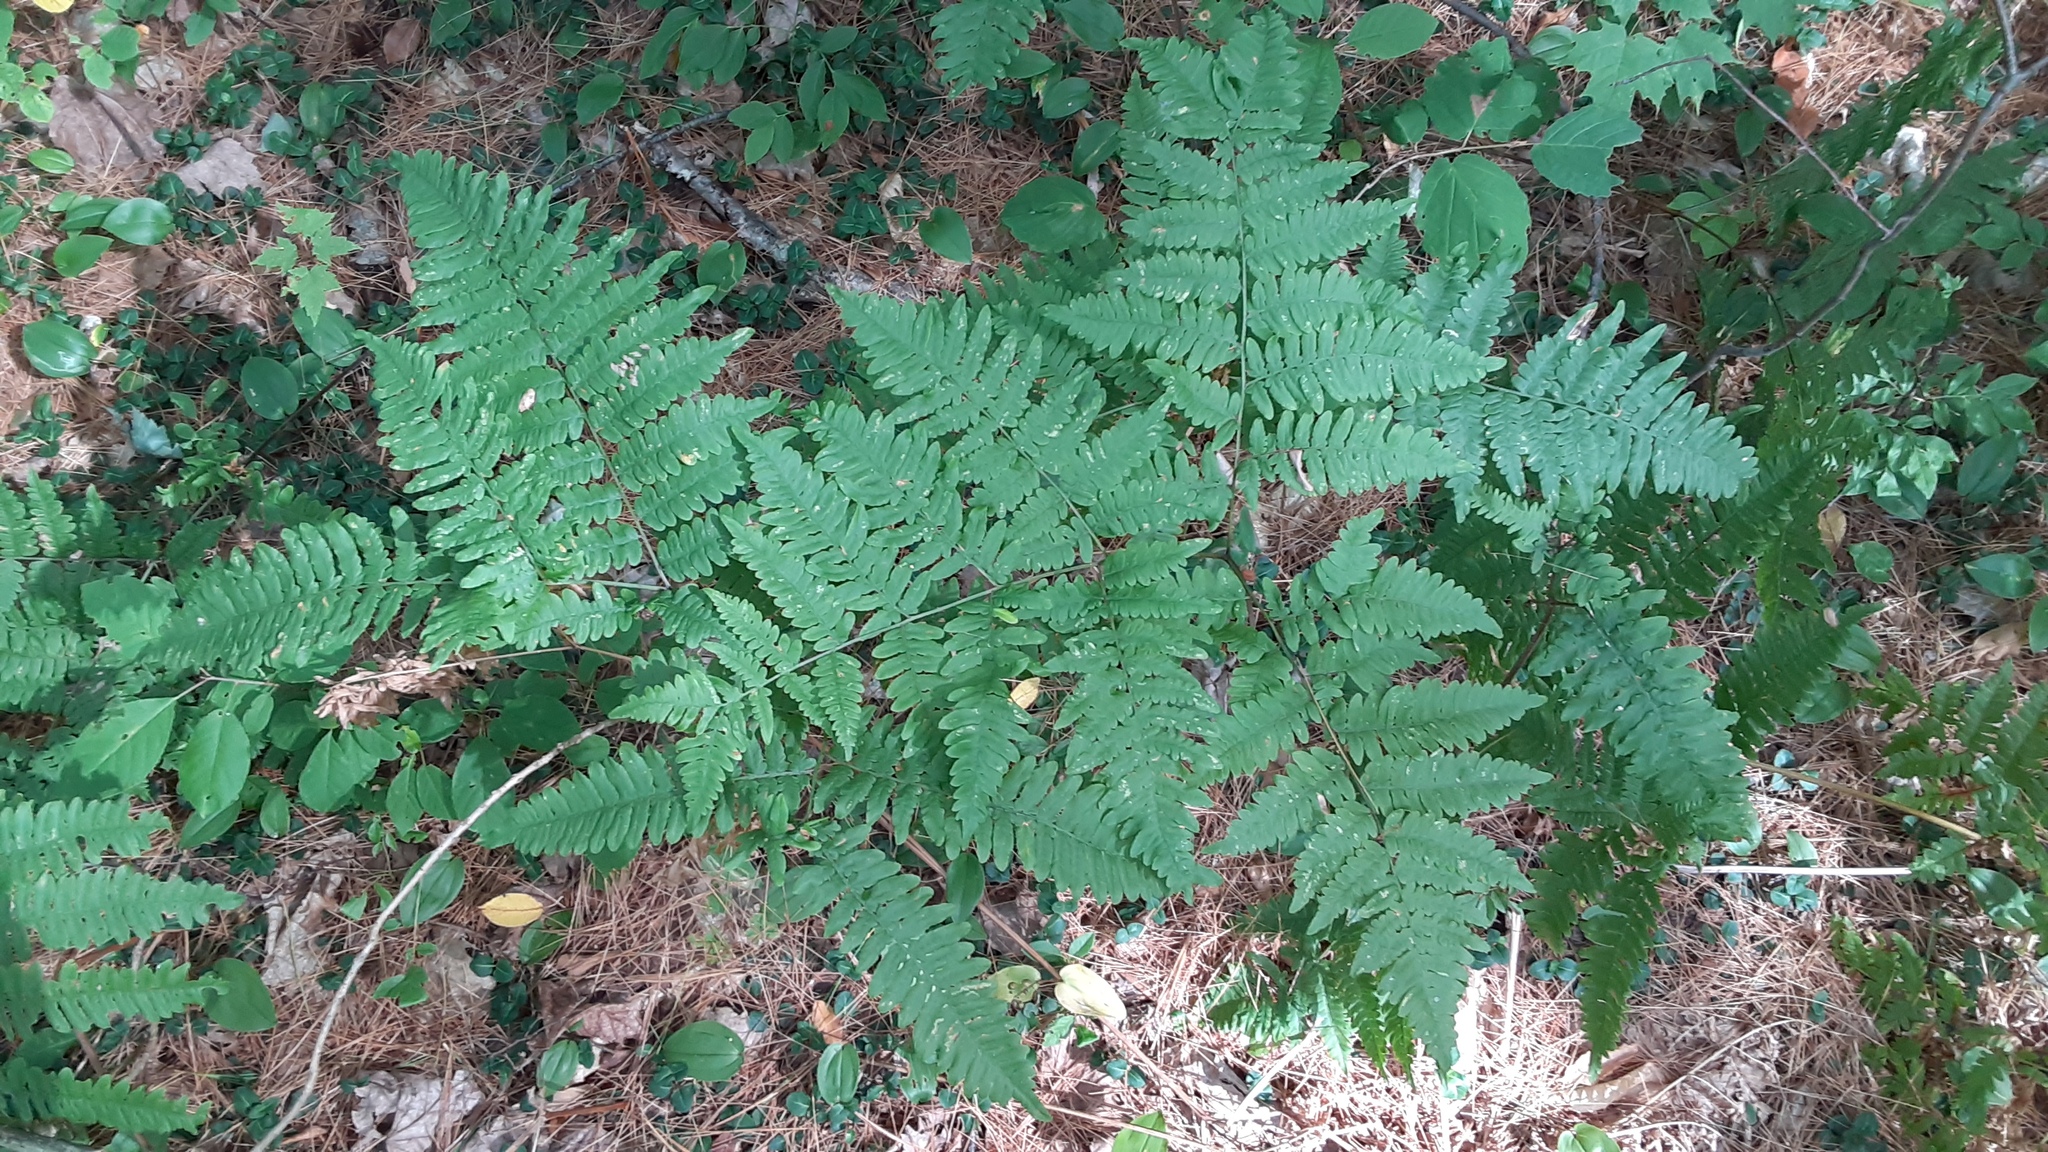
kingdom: Plantae
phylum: Tracheophyta
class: Polypodiopsida
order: Polypodiales
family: Dennstaedtiaceae
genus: Pteridium
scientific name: Pteridium aquilinum
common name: Bracken
